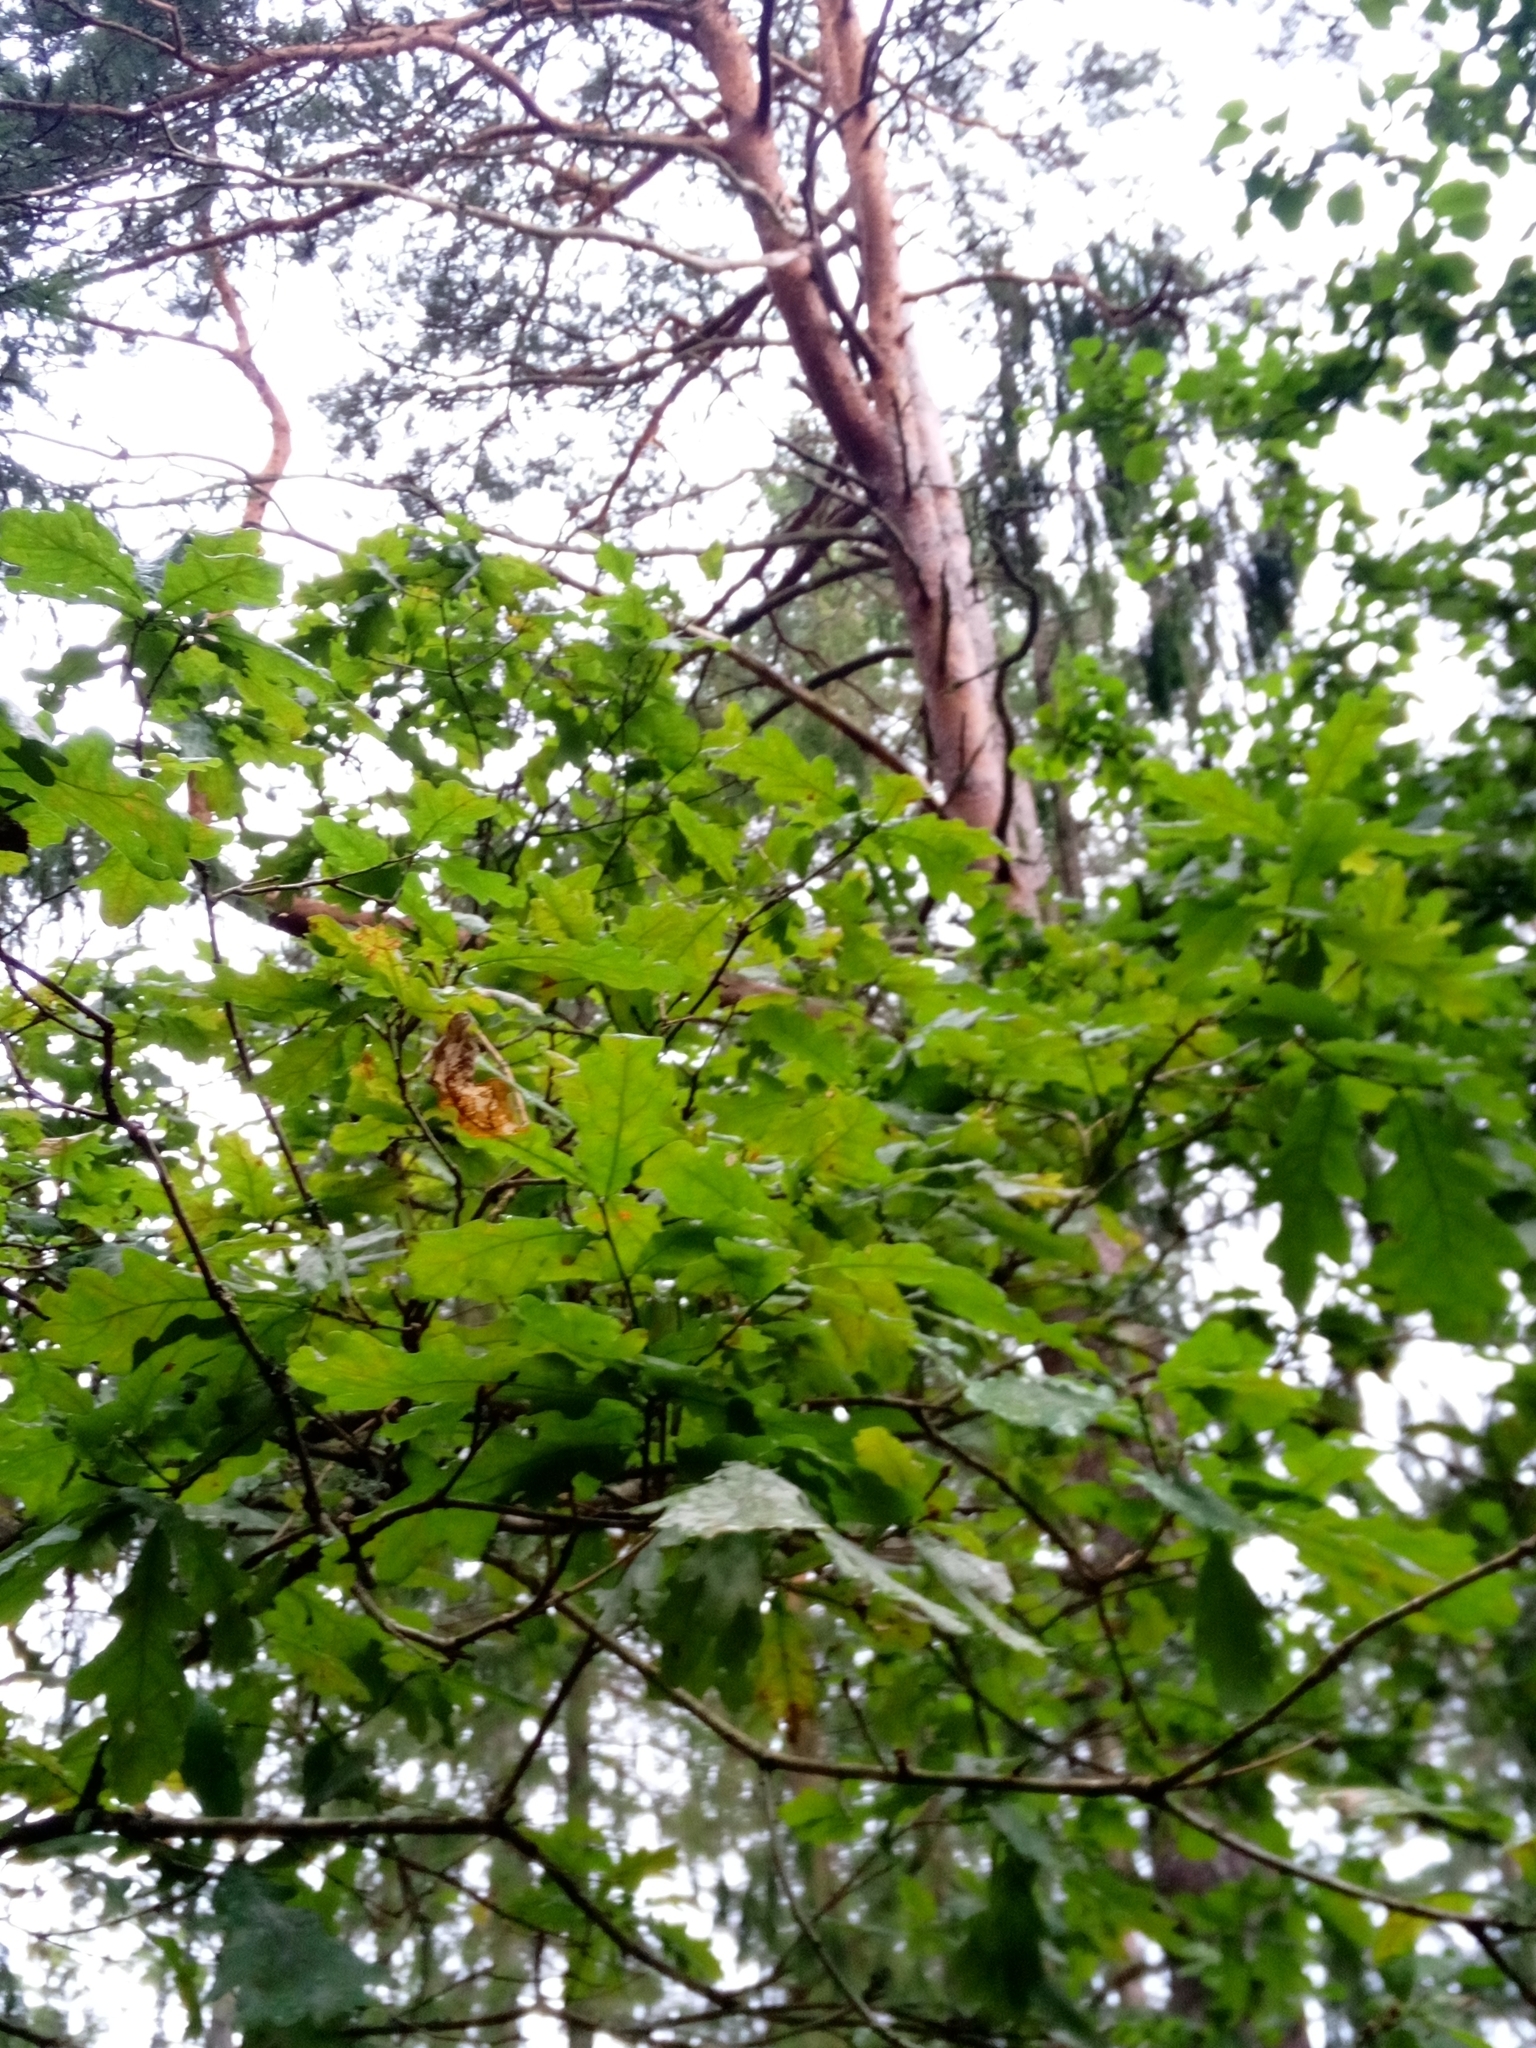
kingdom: Plantae
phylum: Tracheophyta
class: Magnoliopsida
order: Fagales
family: Fagaceae
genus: Quercus
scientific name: Quercus robur
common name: Pedunculate oak
